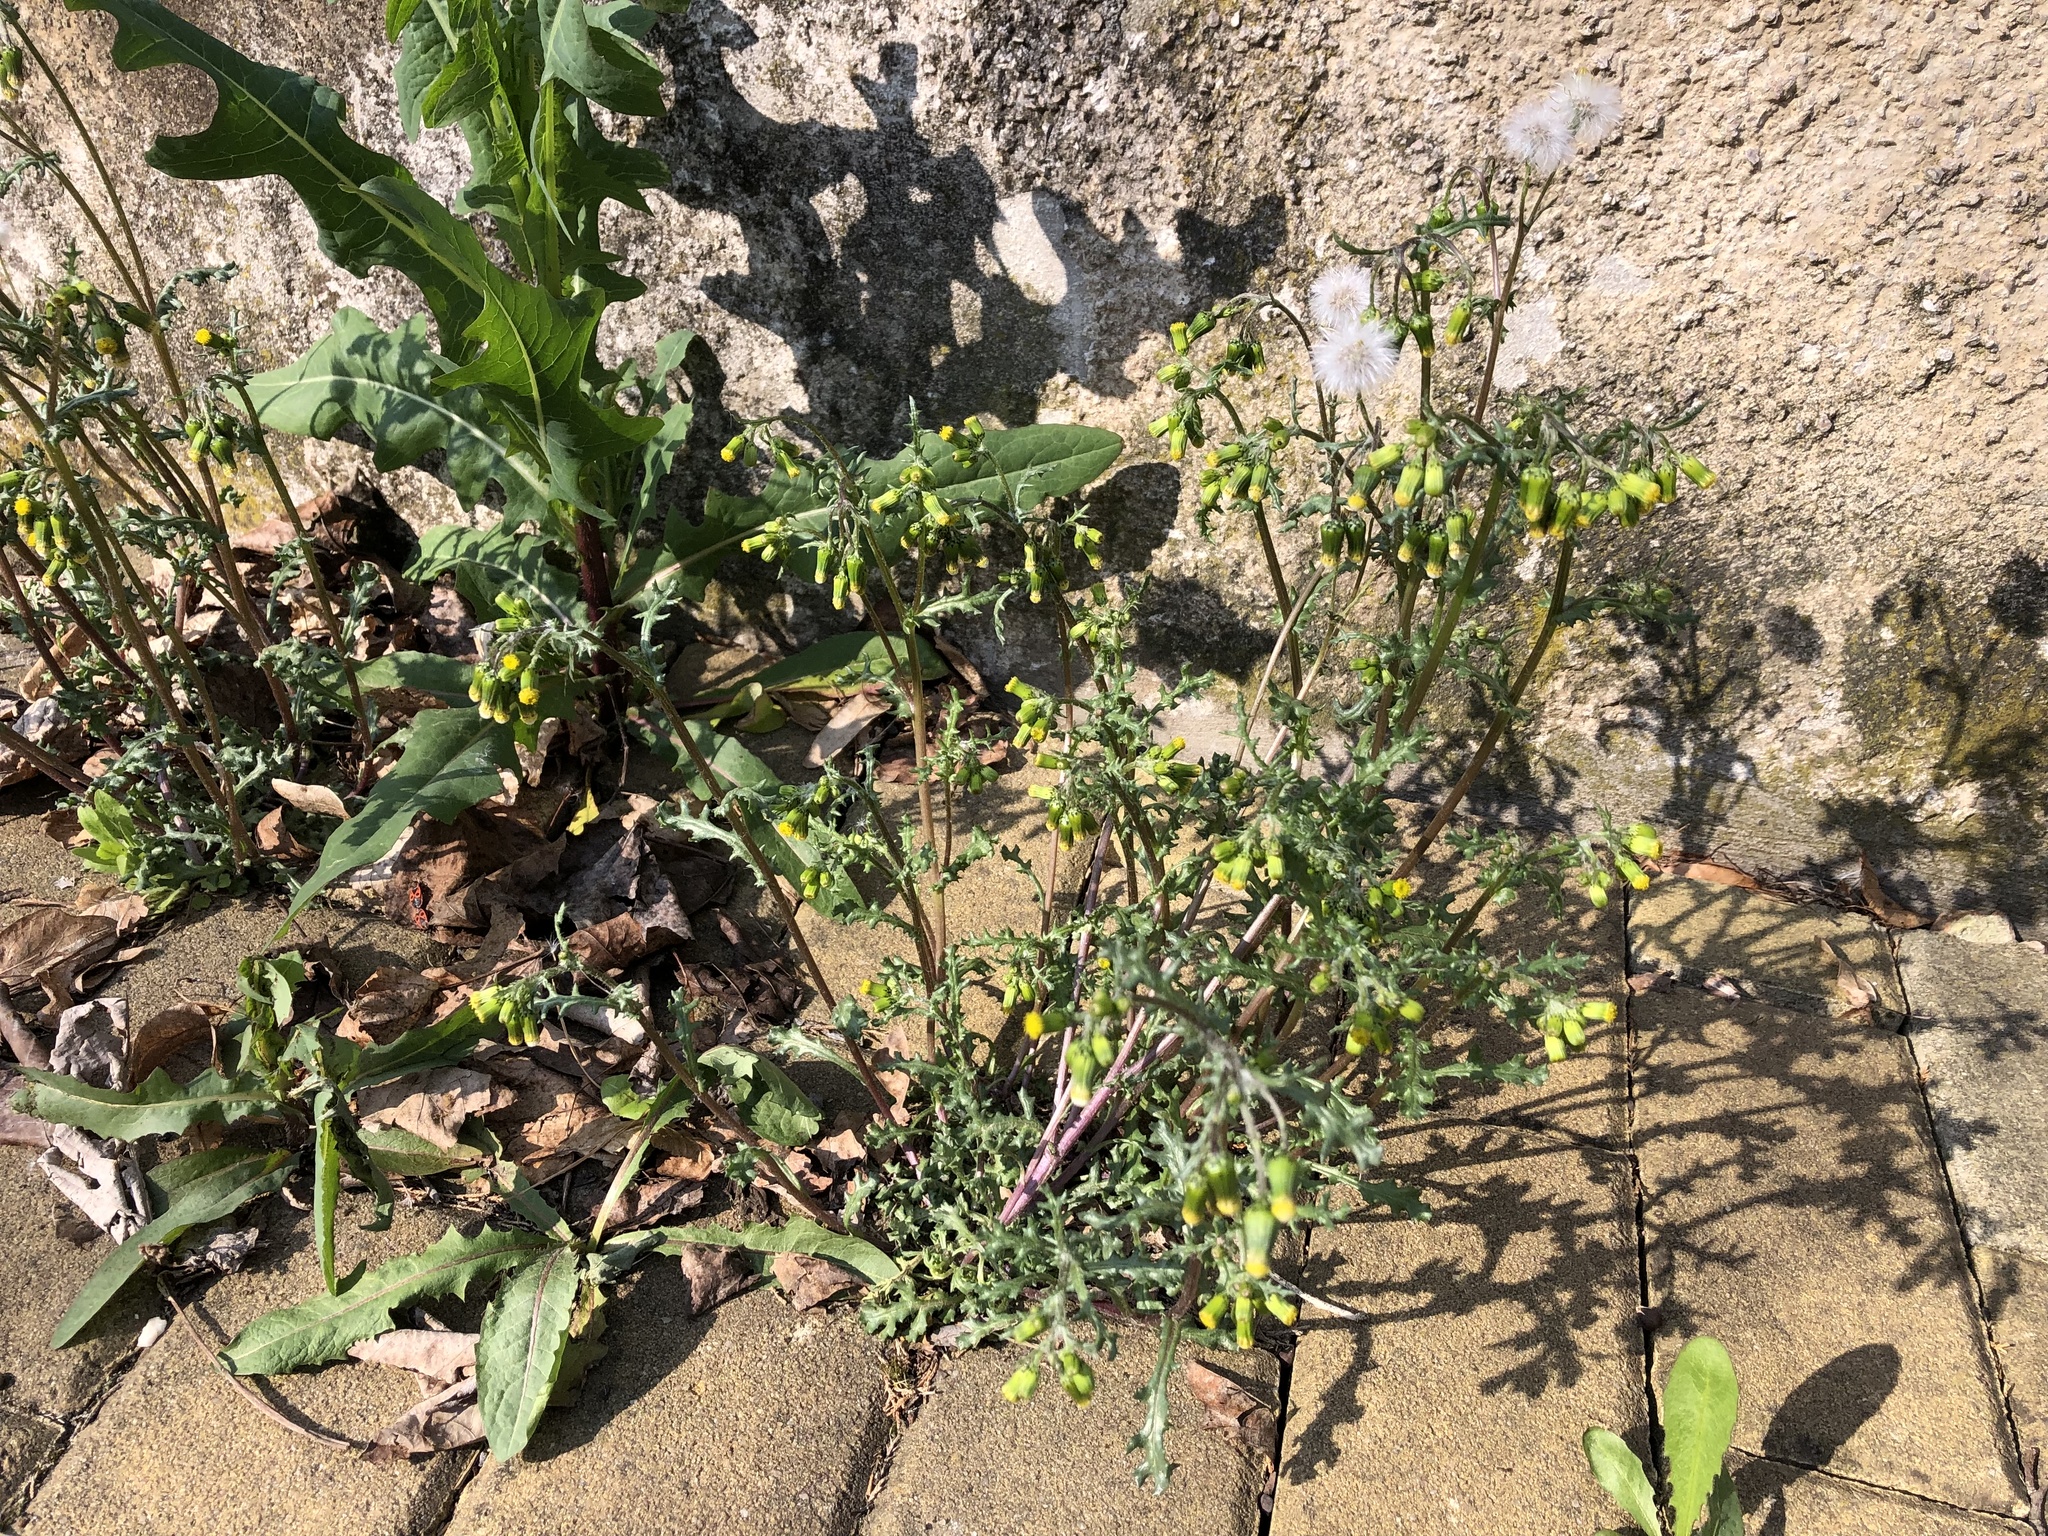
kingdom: Plantae
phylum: Tracheophyta
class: Magnoliopsida
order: Asterales
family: Asteraceae
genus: Senecio
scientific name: Senecio vulgaris
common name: Old-man-in-the-spring
